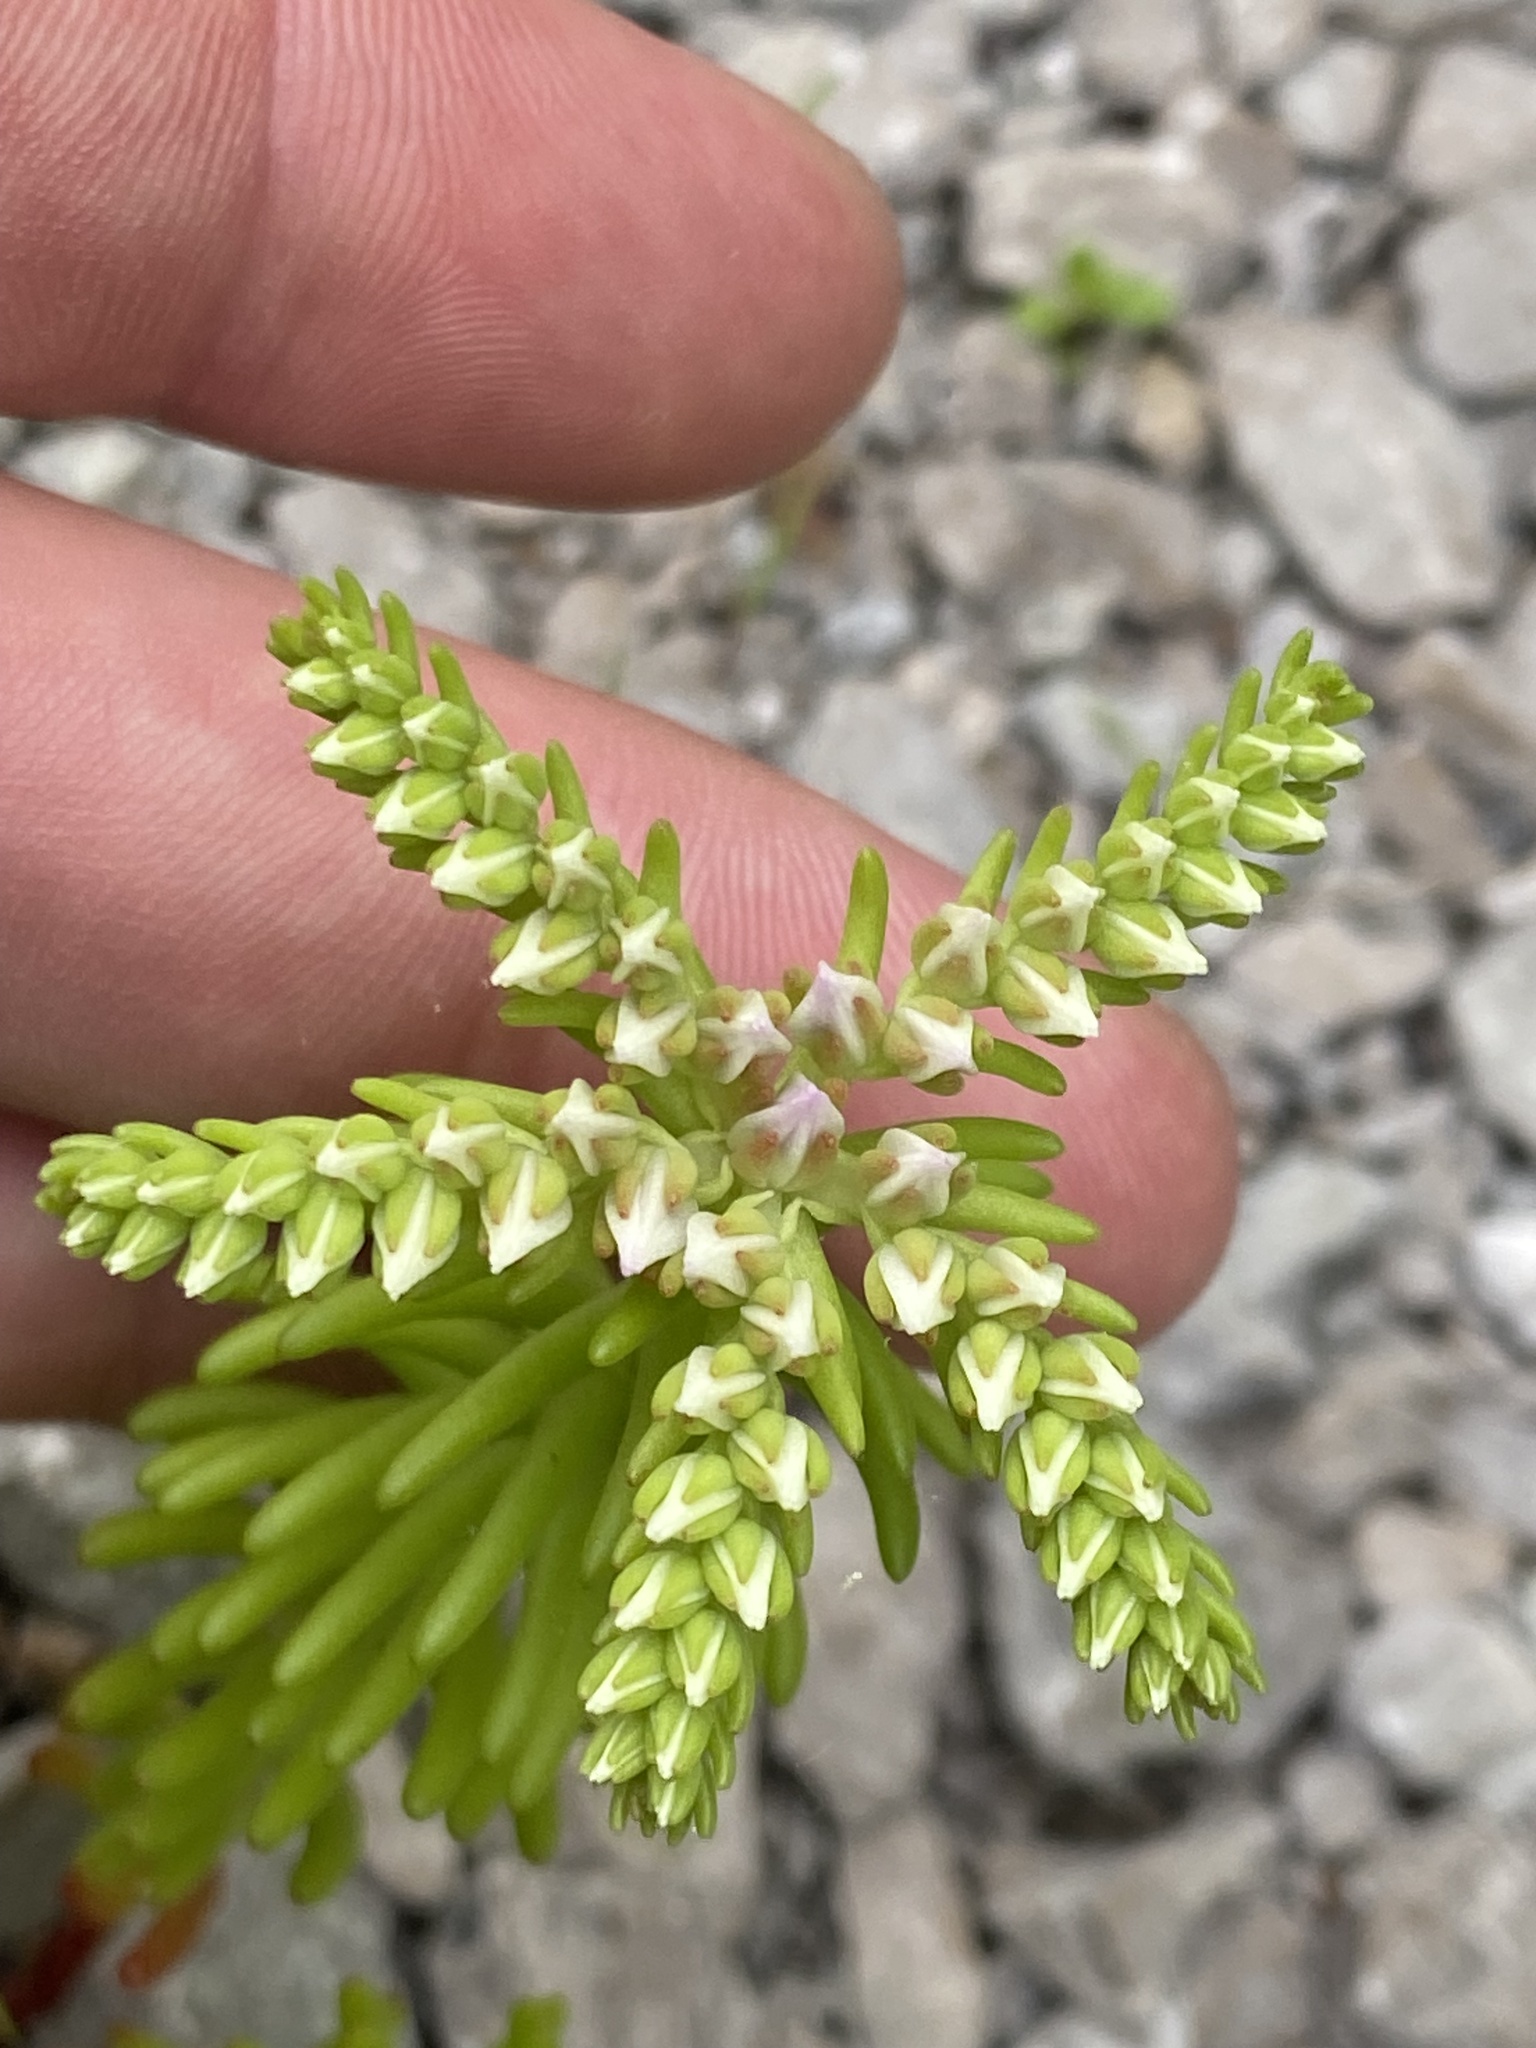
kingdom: Plantae
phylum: Tracheophyta
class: Magnoliopsida
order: Saxifragales
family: Crassulaceae
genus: Sedum
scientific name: Sedum pulchellum
